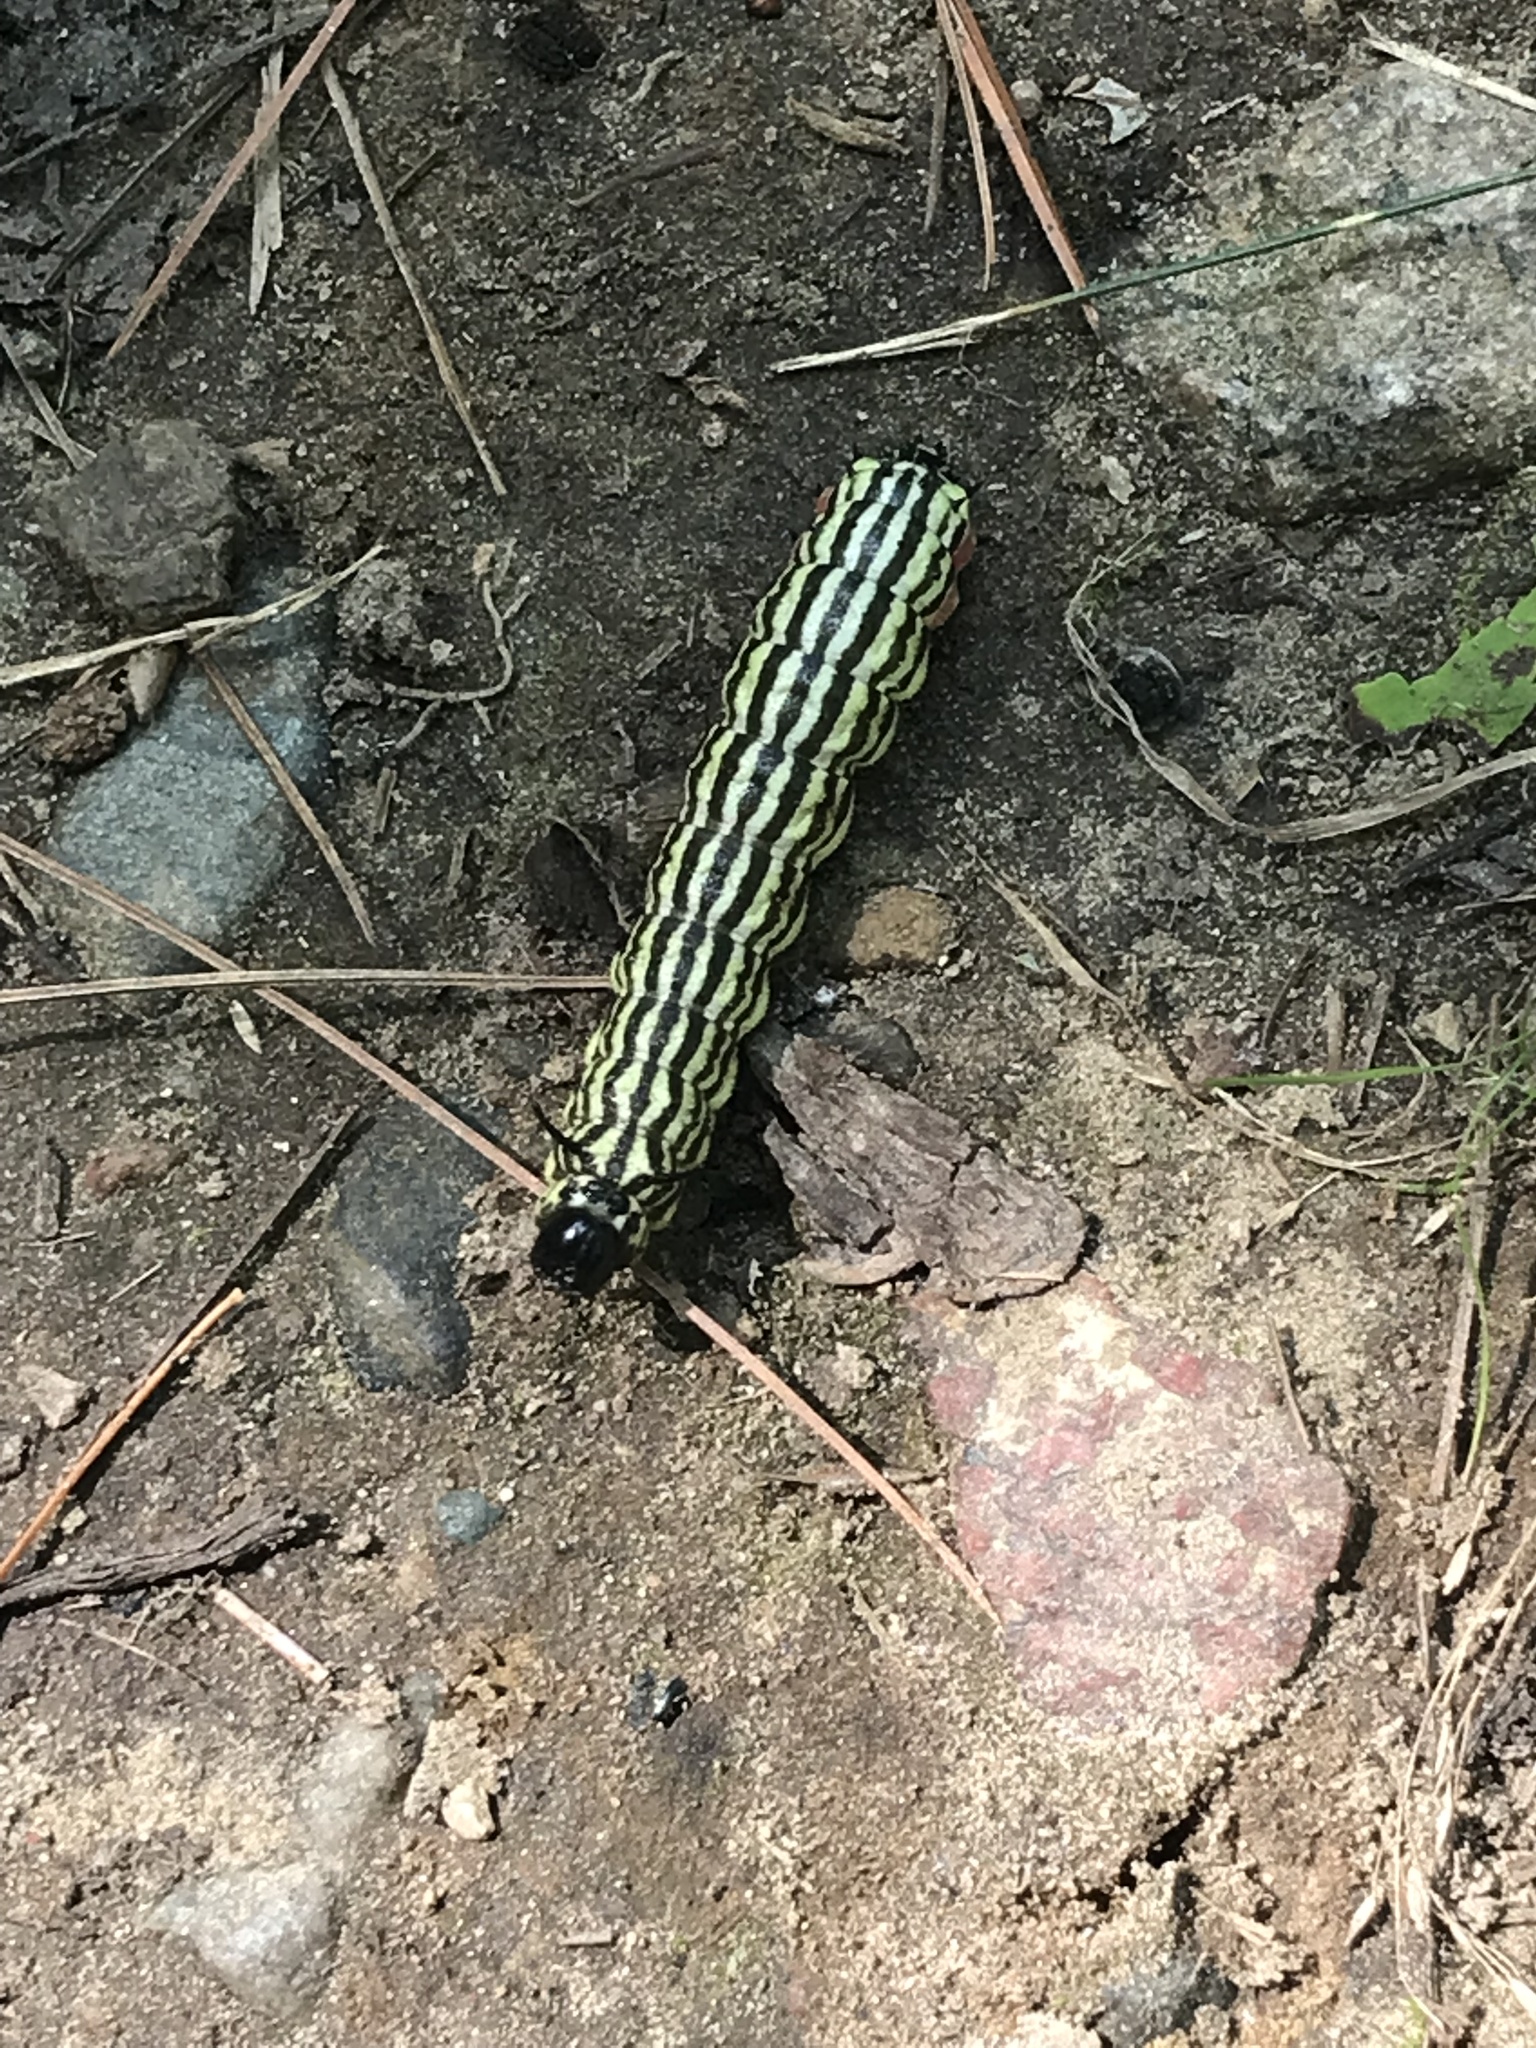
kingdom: Animalia
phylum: Arthropoda
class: Insecta
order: Lepidoptera
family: Saturniidae
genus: Dryocampa
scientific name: Dryocampa rubicunda
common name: Rosy maple moth
